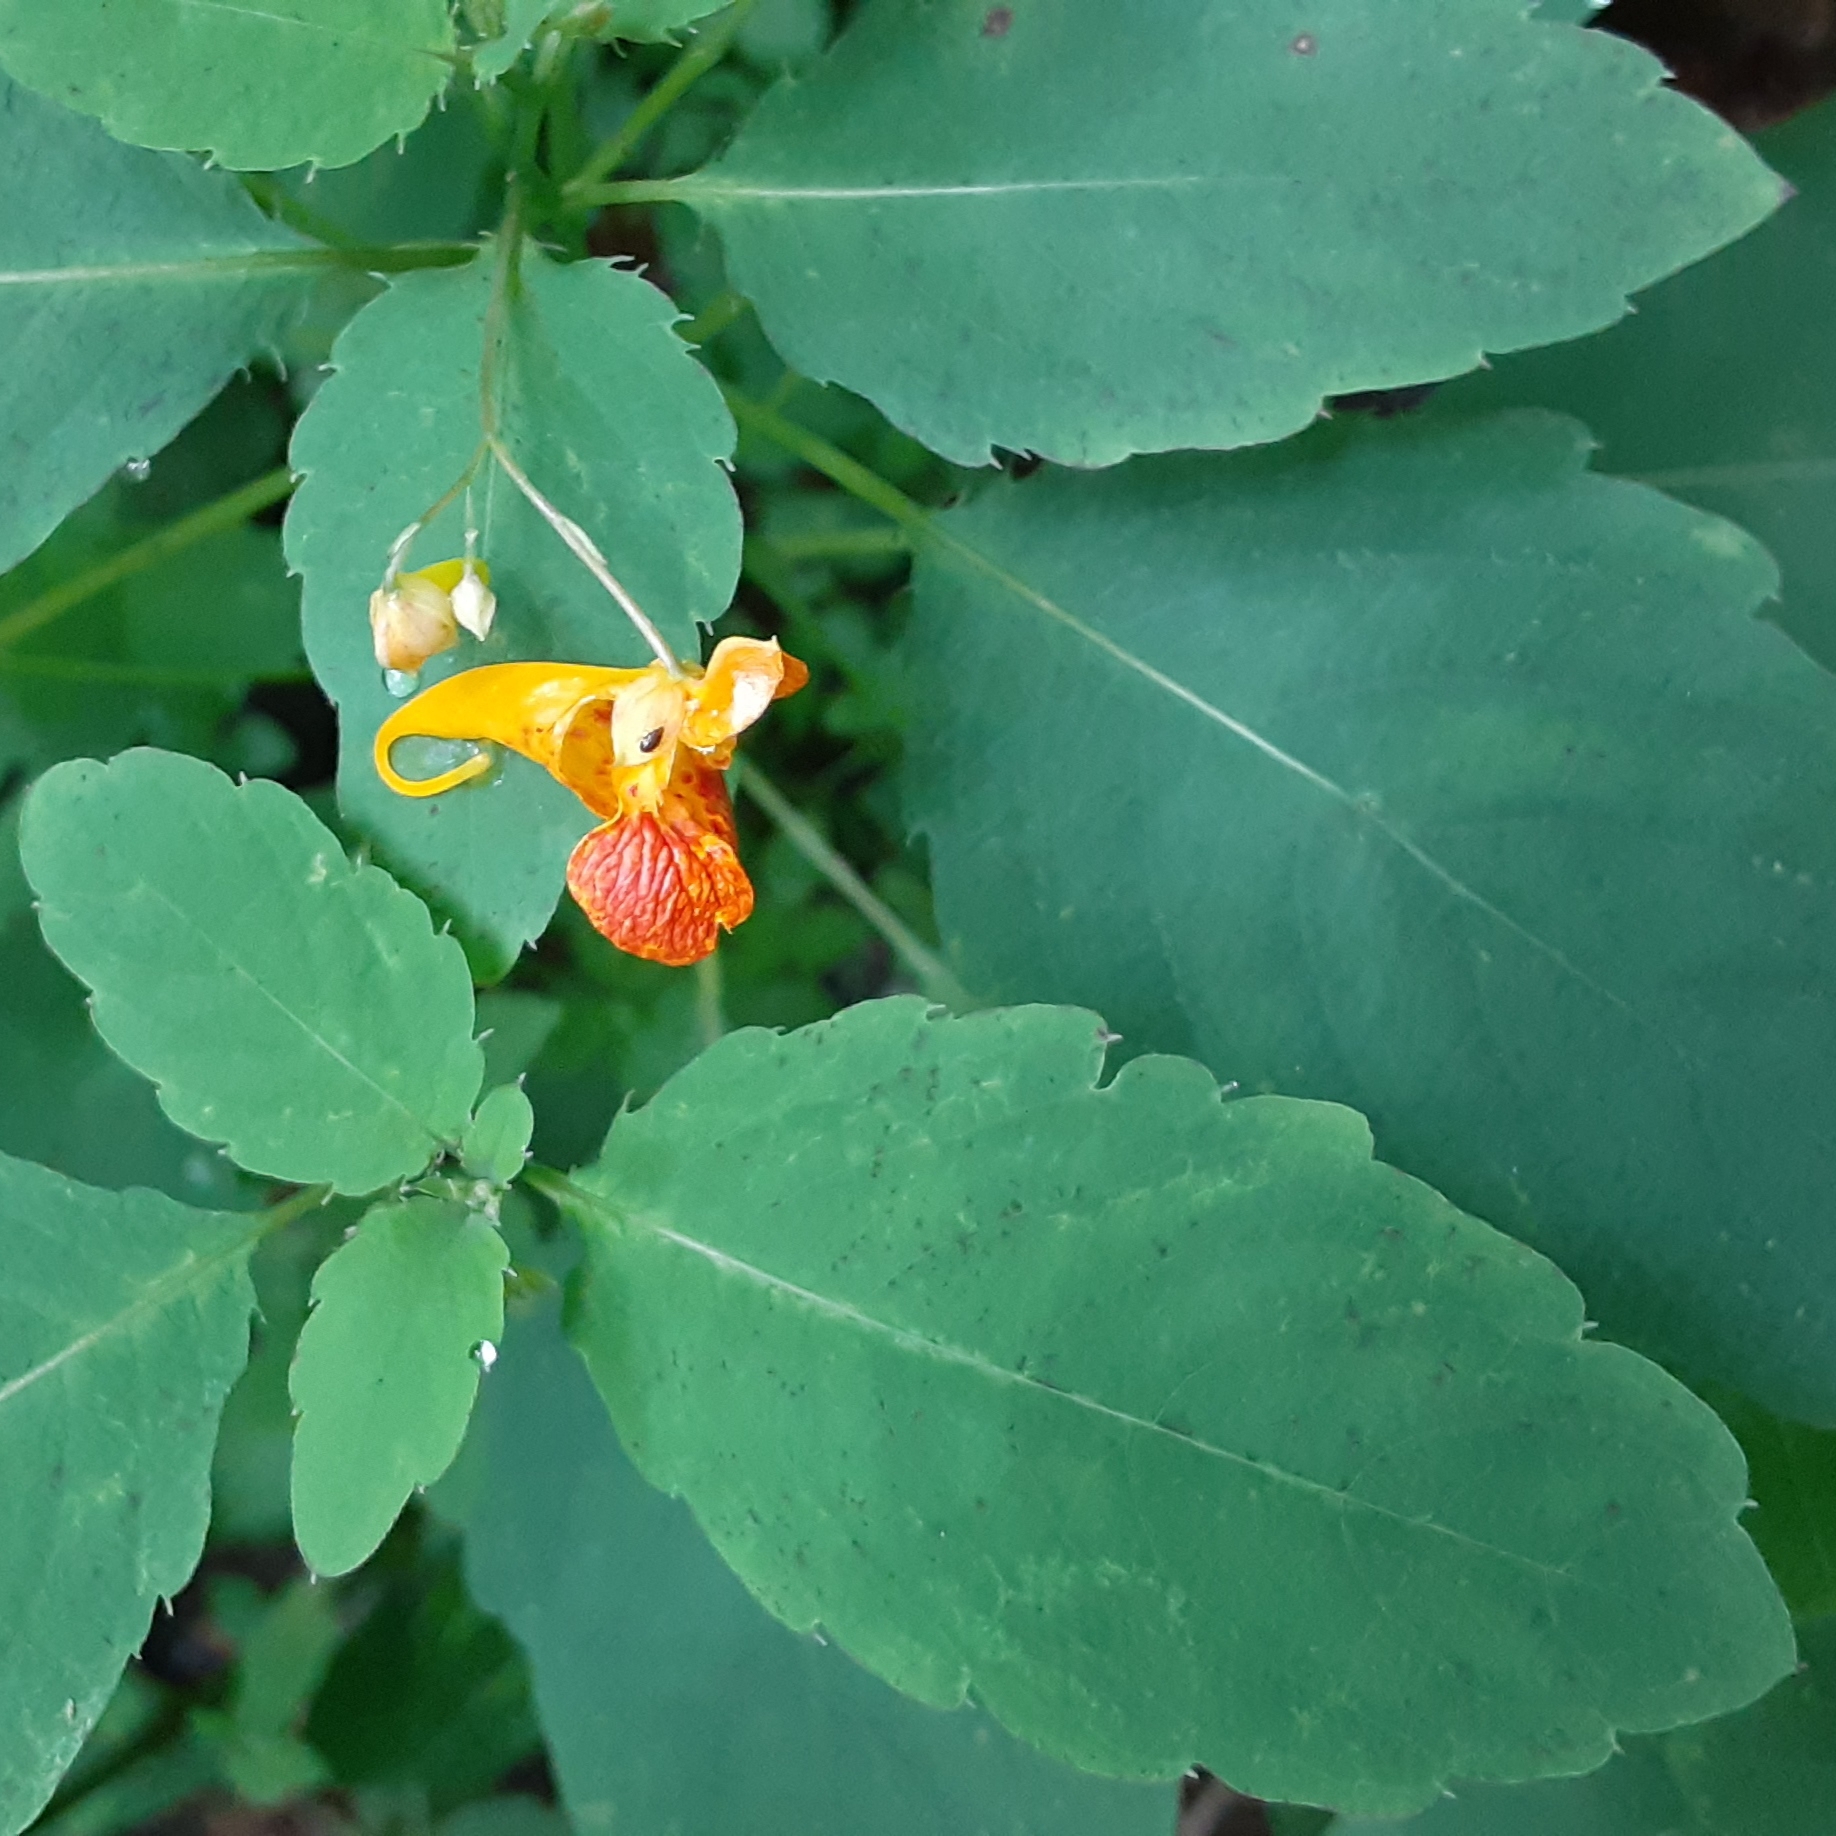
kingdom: Plantae
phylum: Tracheophyta
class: Magnoliopsida
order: Ericales
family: Balsaminaceae
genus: Impatiens
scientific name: Impatiens capensis
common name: Orange balsam
